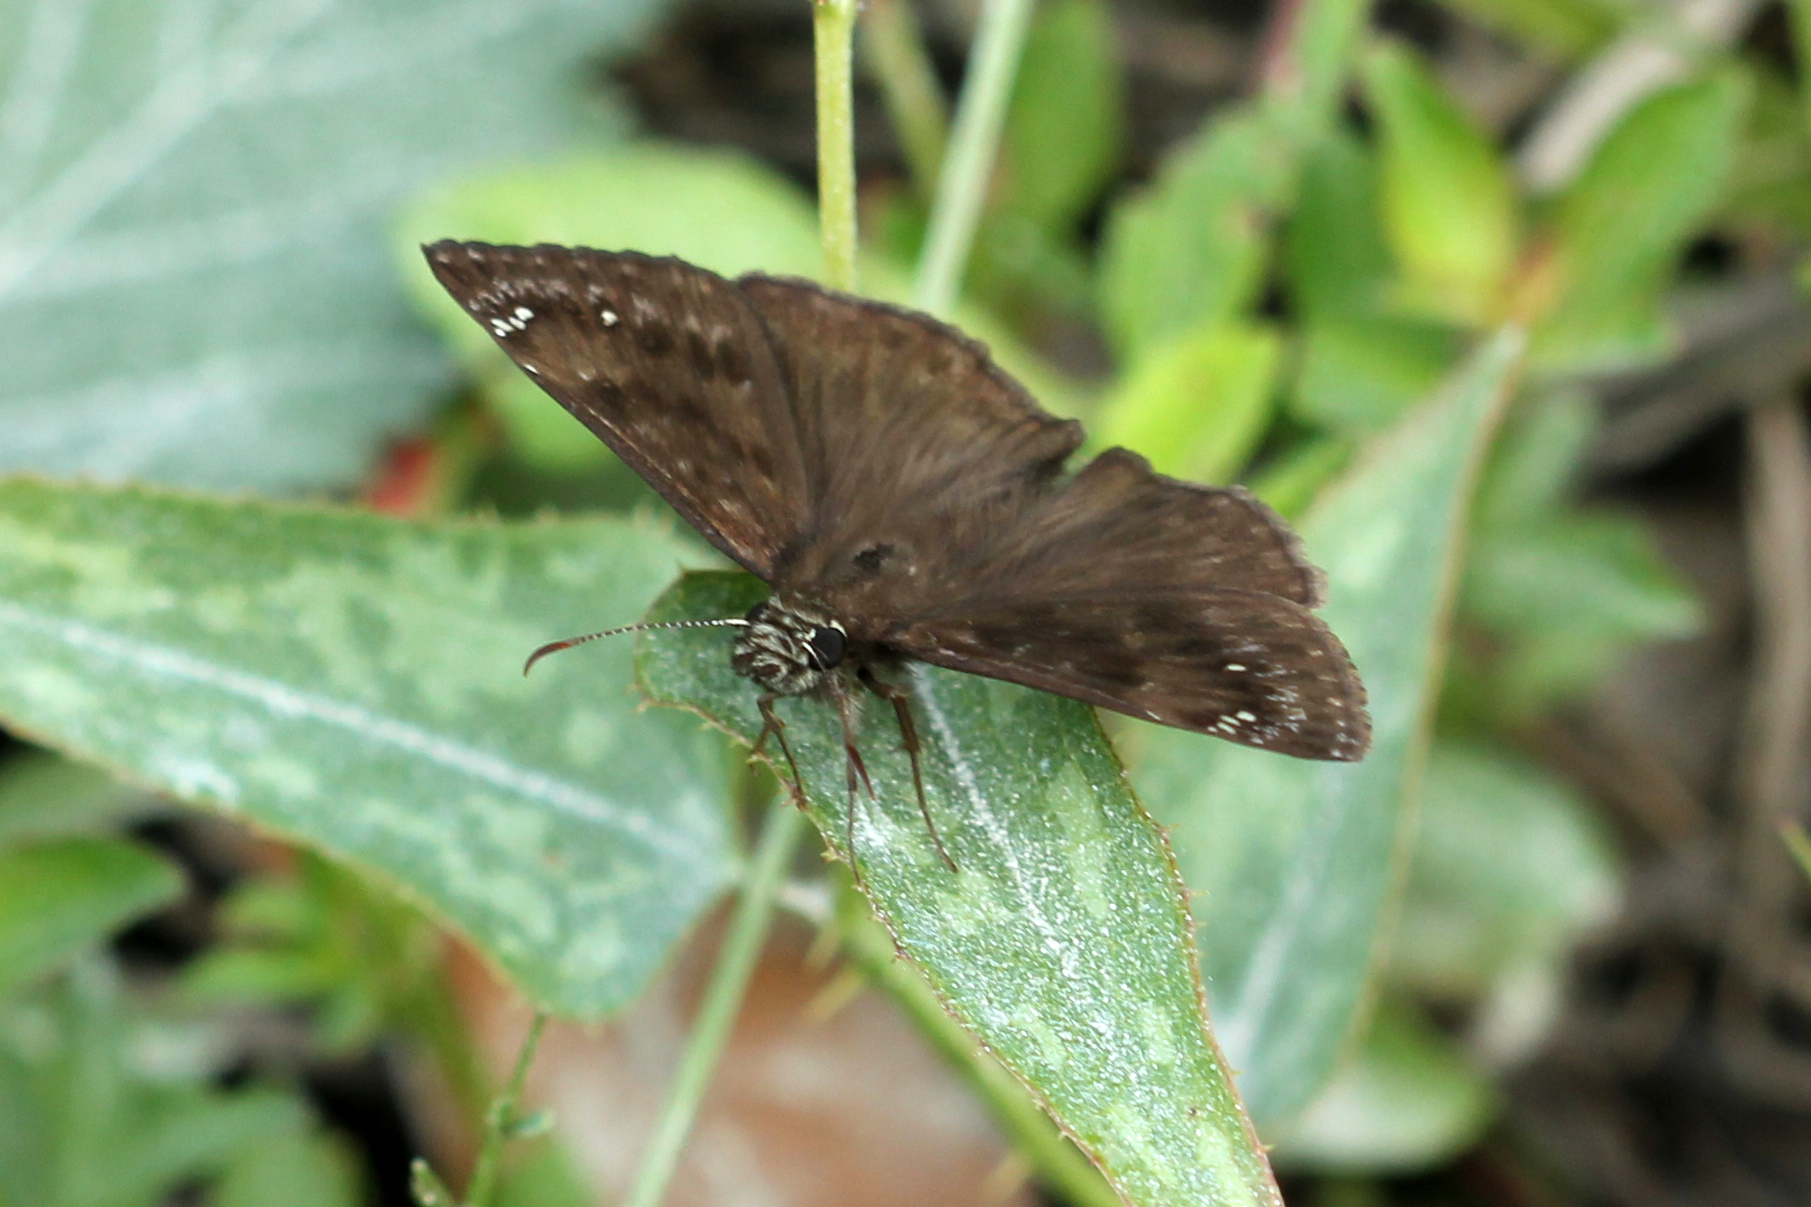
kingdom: Animalia
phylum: Arthropoda
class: Insecta
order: Lepidoptera
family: Hesperiidae
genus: Erynnis
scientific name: Erynnis horatius
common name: Horace's duskywing
